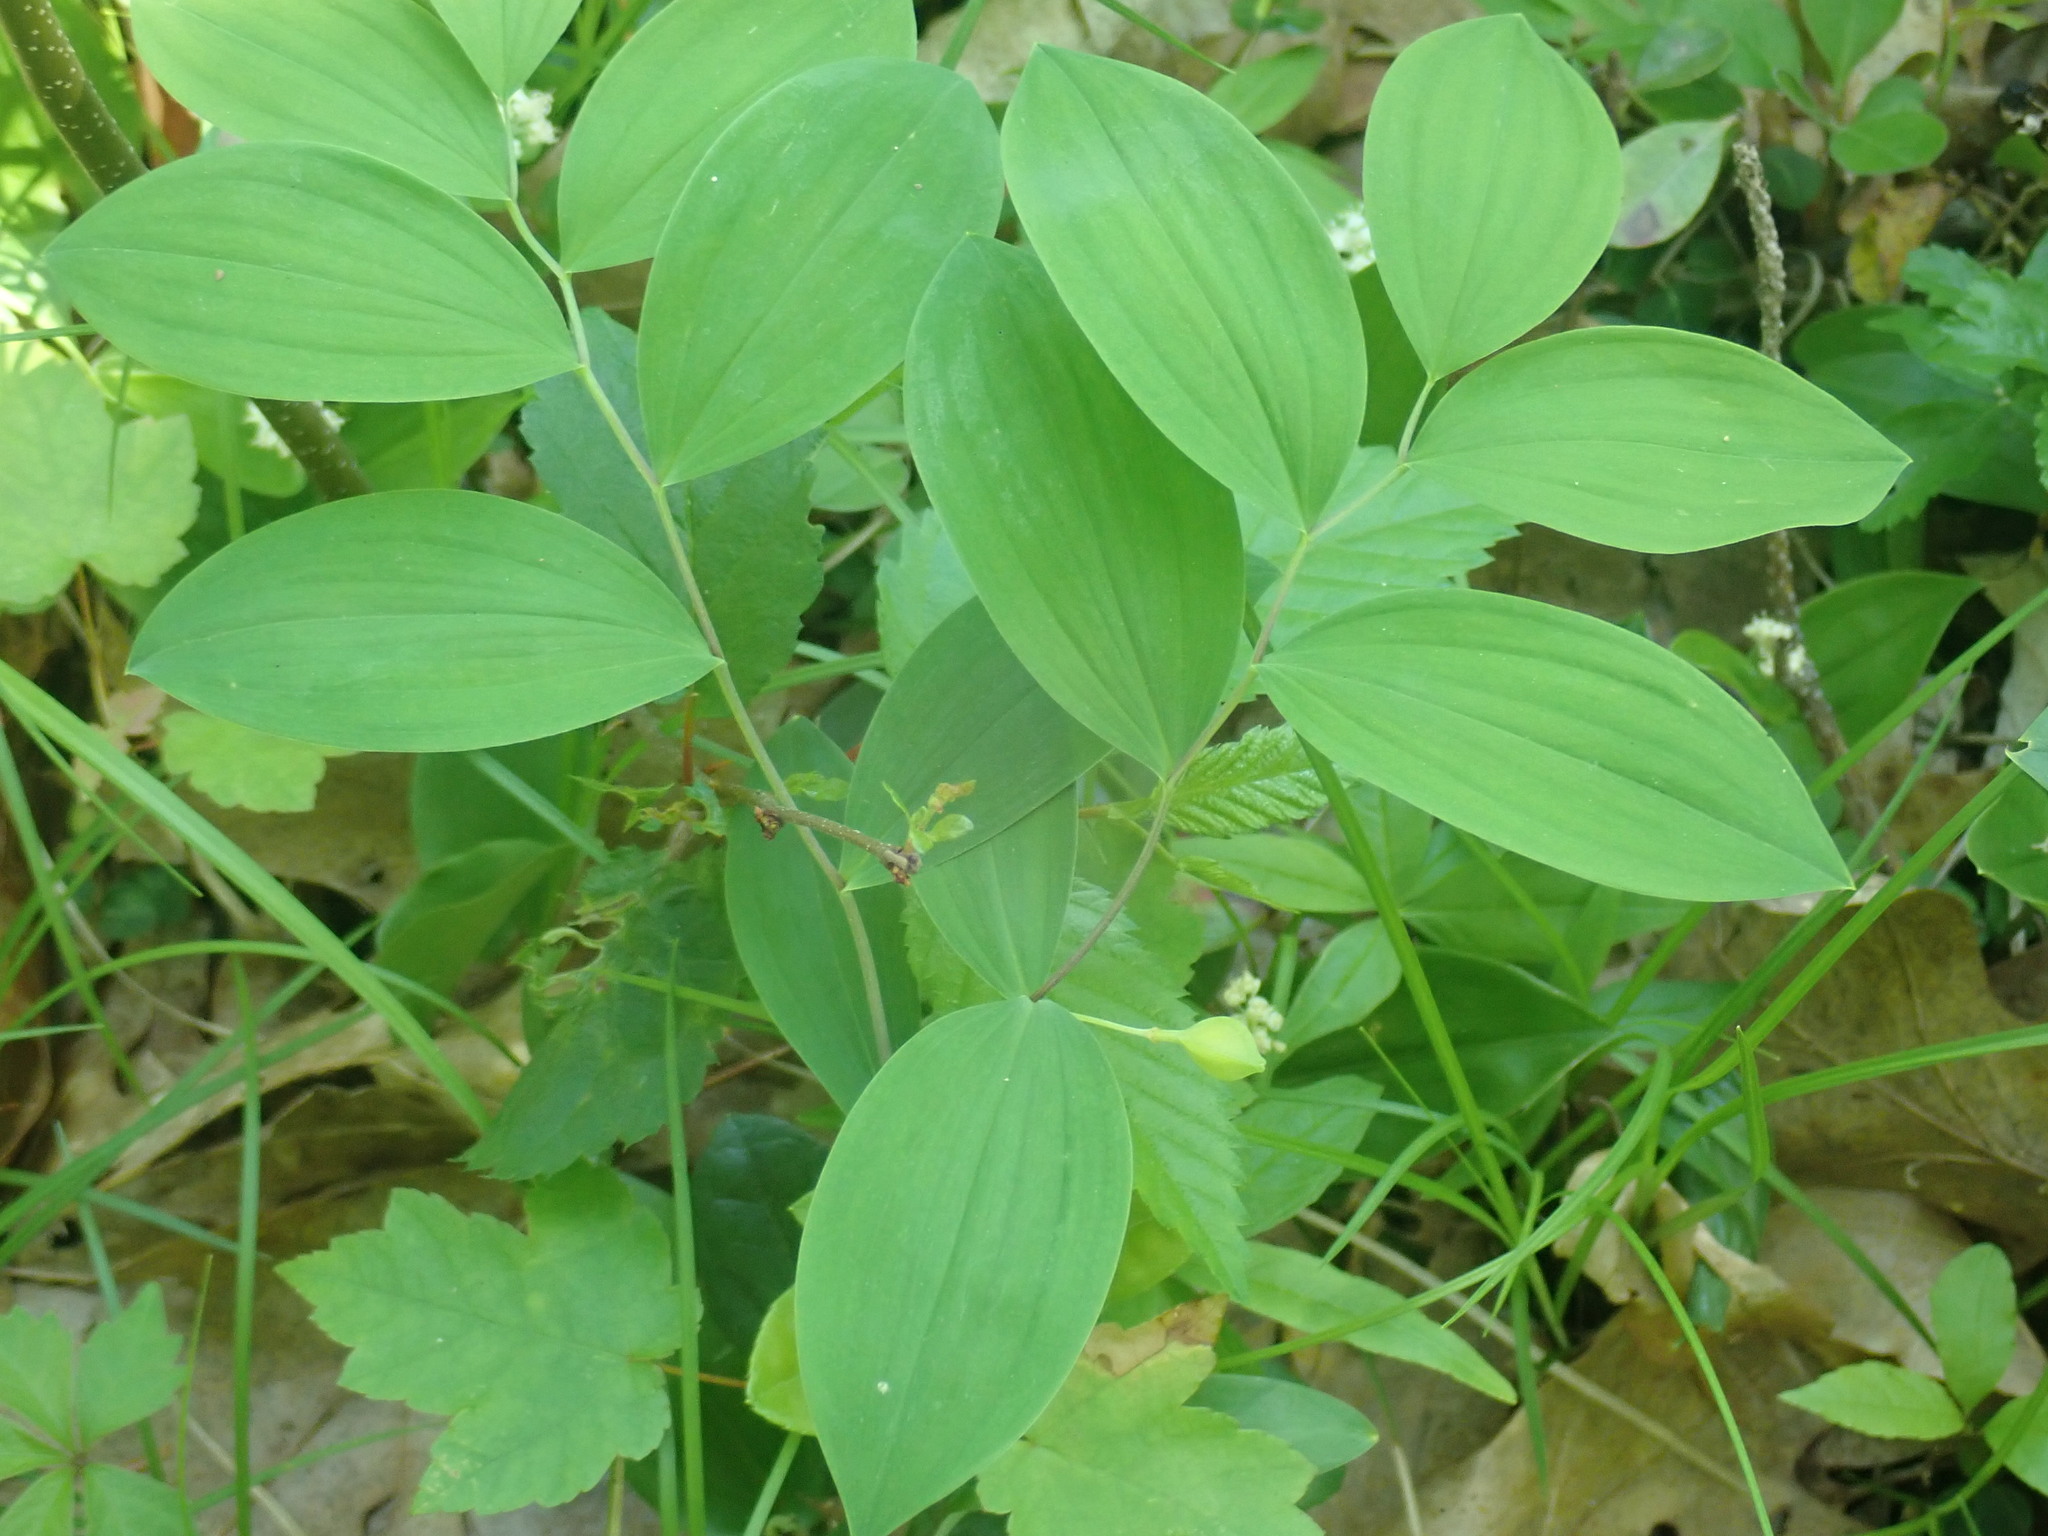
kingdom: Plantae
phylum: Tracheophyta
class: Liliopsida
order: Liliales
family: Colchicaceae
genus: Uvularia
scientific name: Uvularia sessilifolia
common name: Straw-lily
